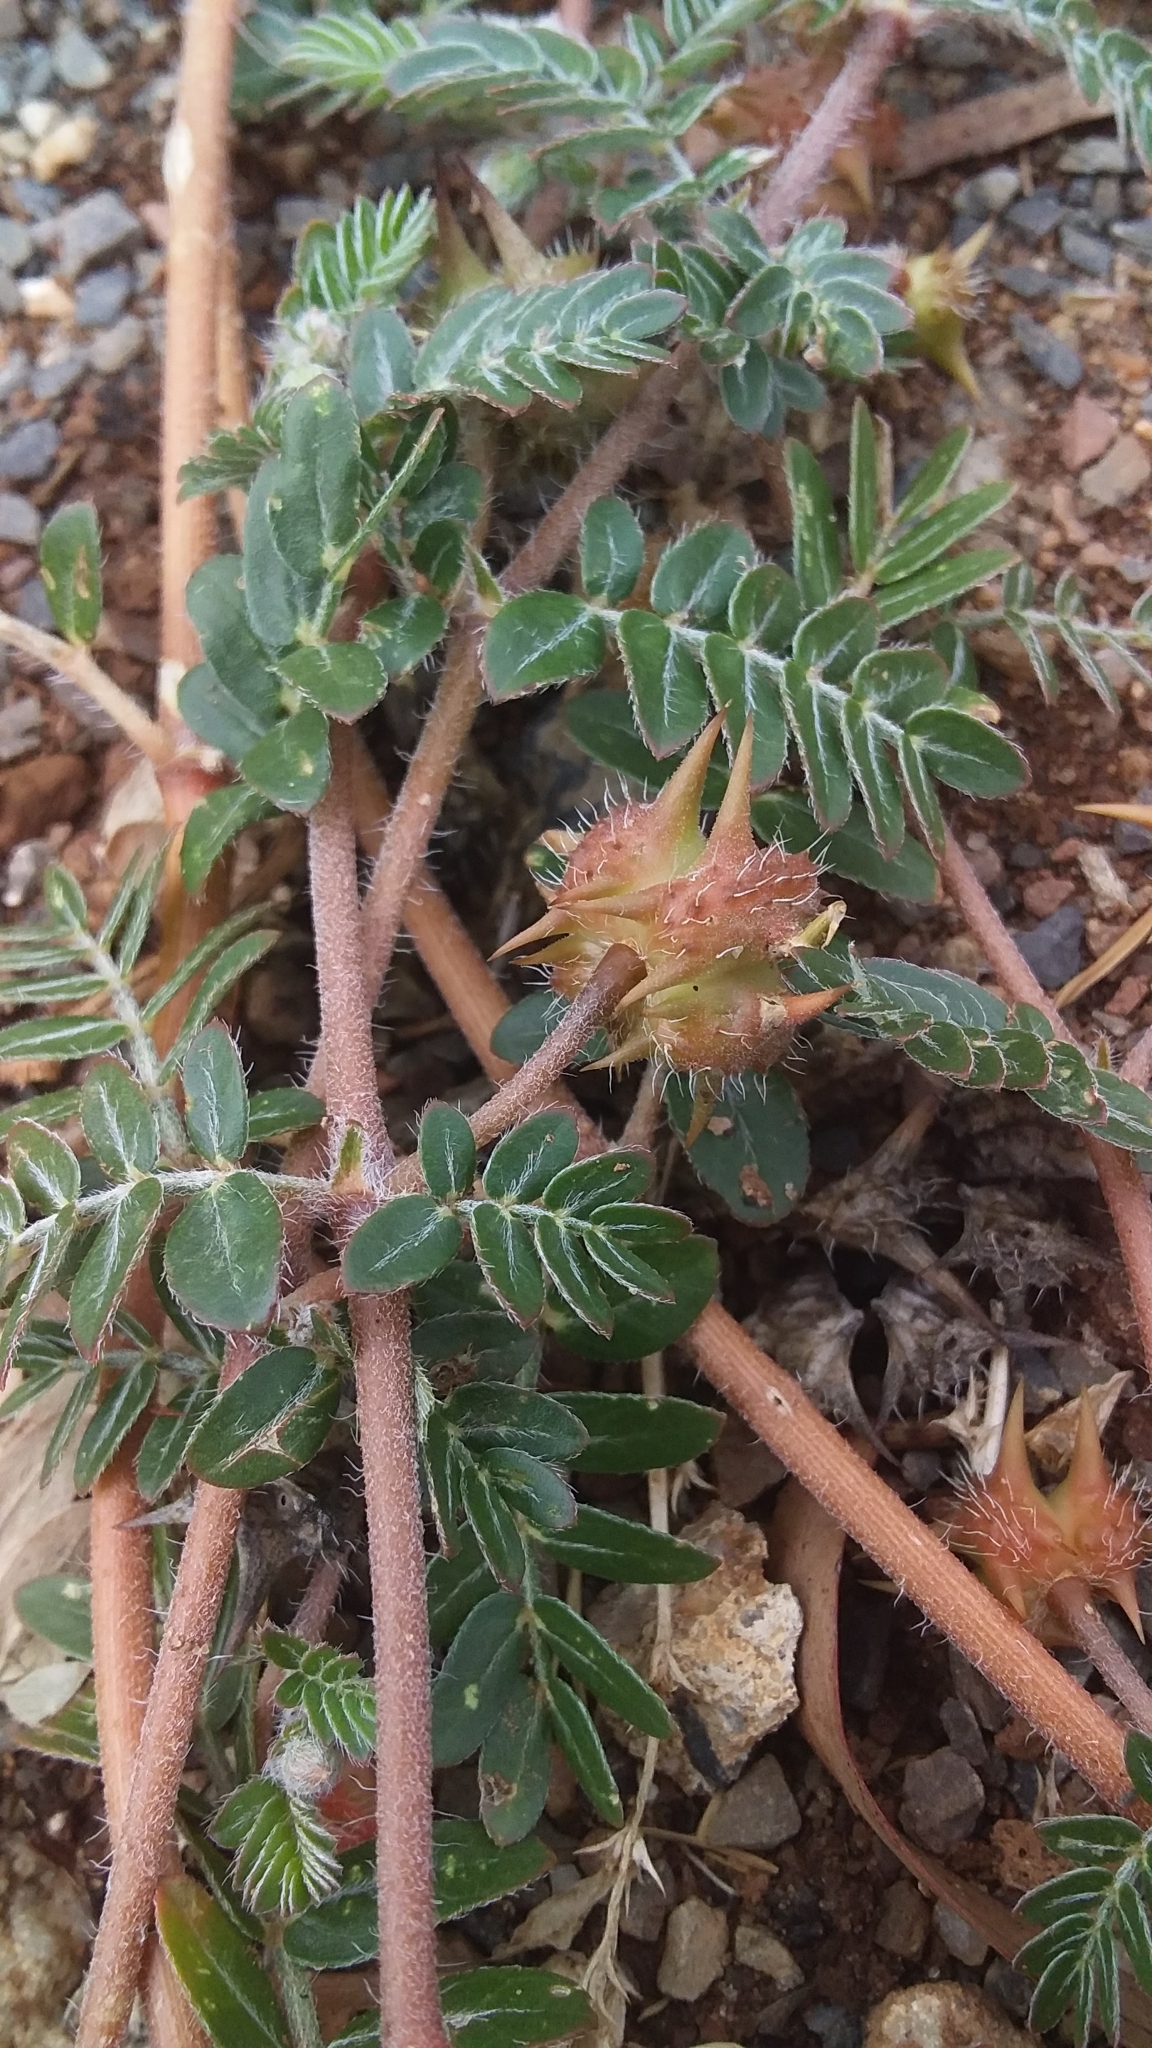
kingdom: Plantae
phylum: Tracheophyta
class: Magnoliopsida
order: Zygophyllales
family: Zygophyllaceae
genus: Tribulus
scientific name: Tribulus terrestris
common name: Puncturevine
